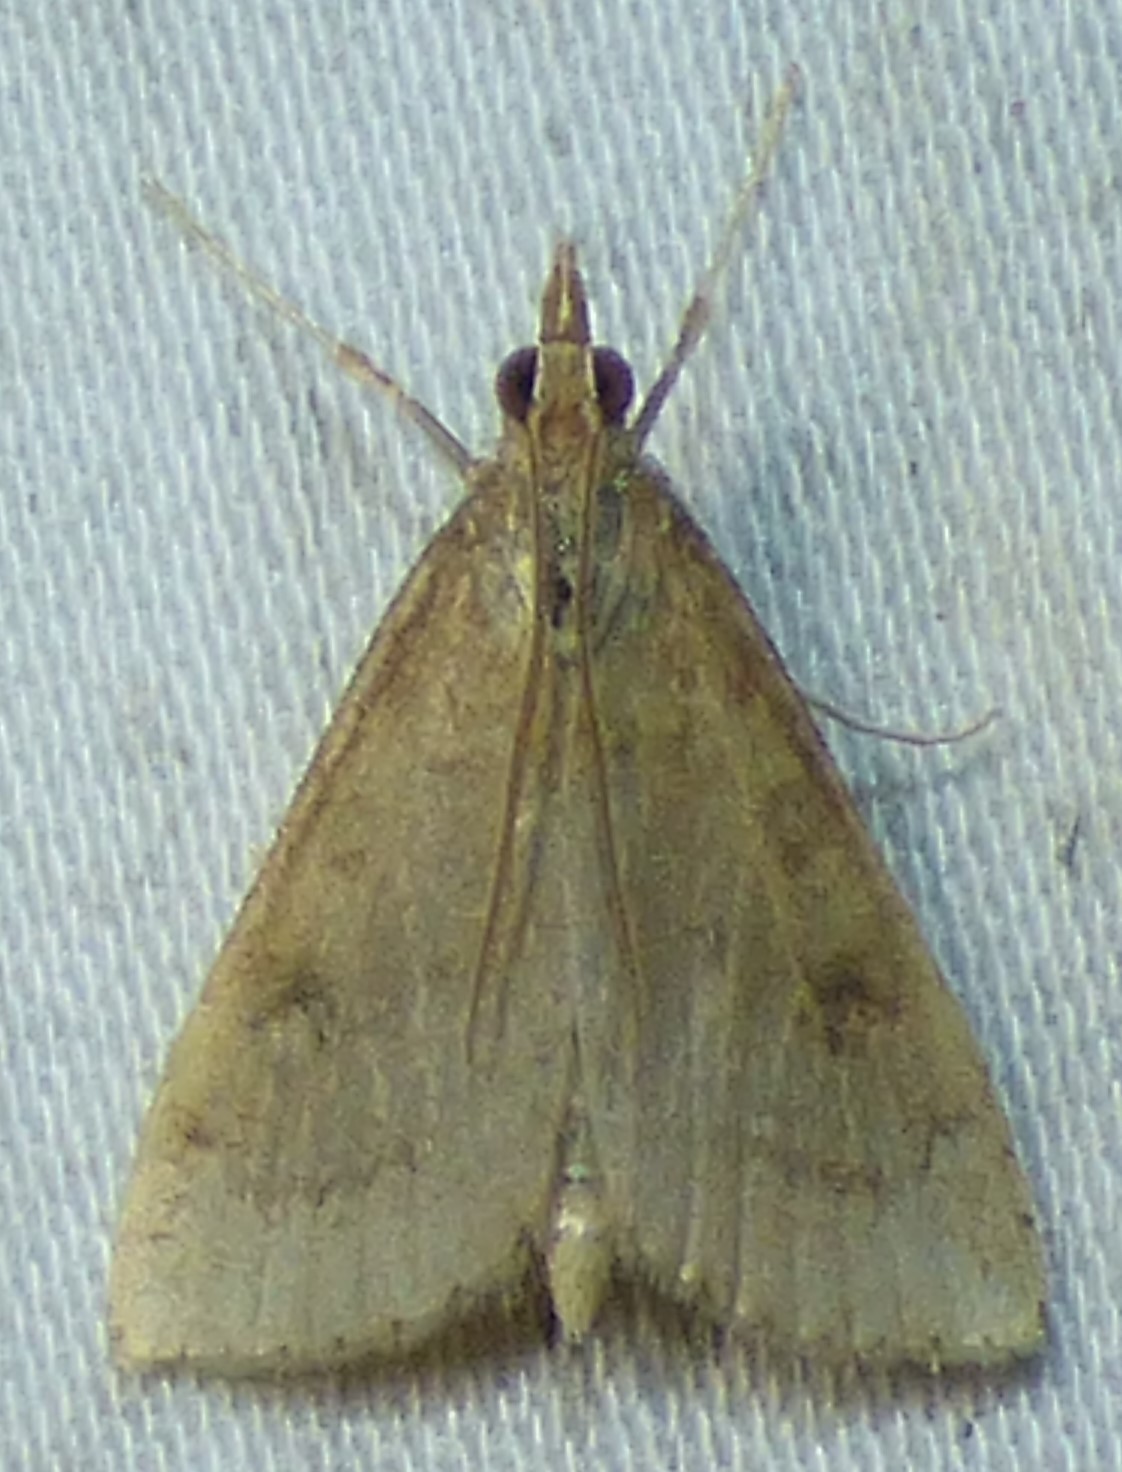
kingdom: Animalia
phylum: Arthropoda
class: Insecta
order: Lepidoptera
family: Crambidae
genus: Udea
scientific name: Udea rubigalis
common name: Celery leaftier moth
